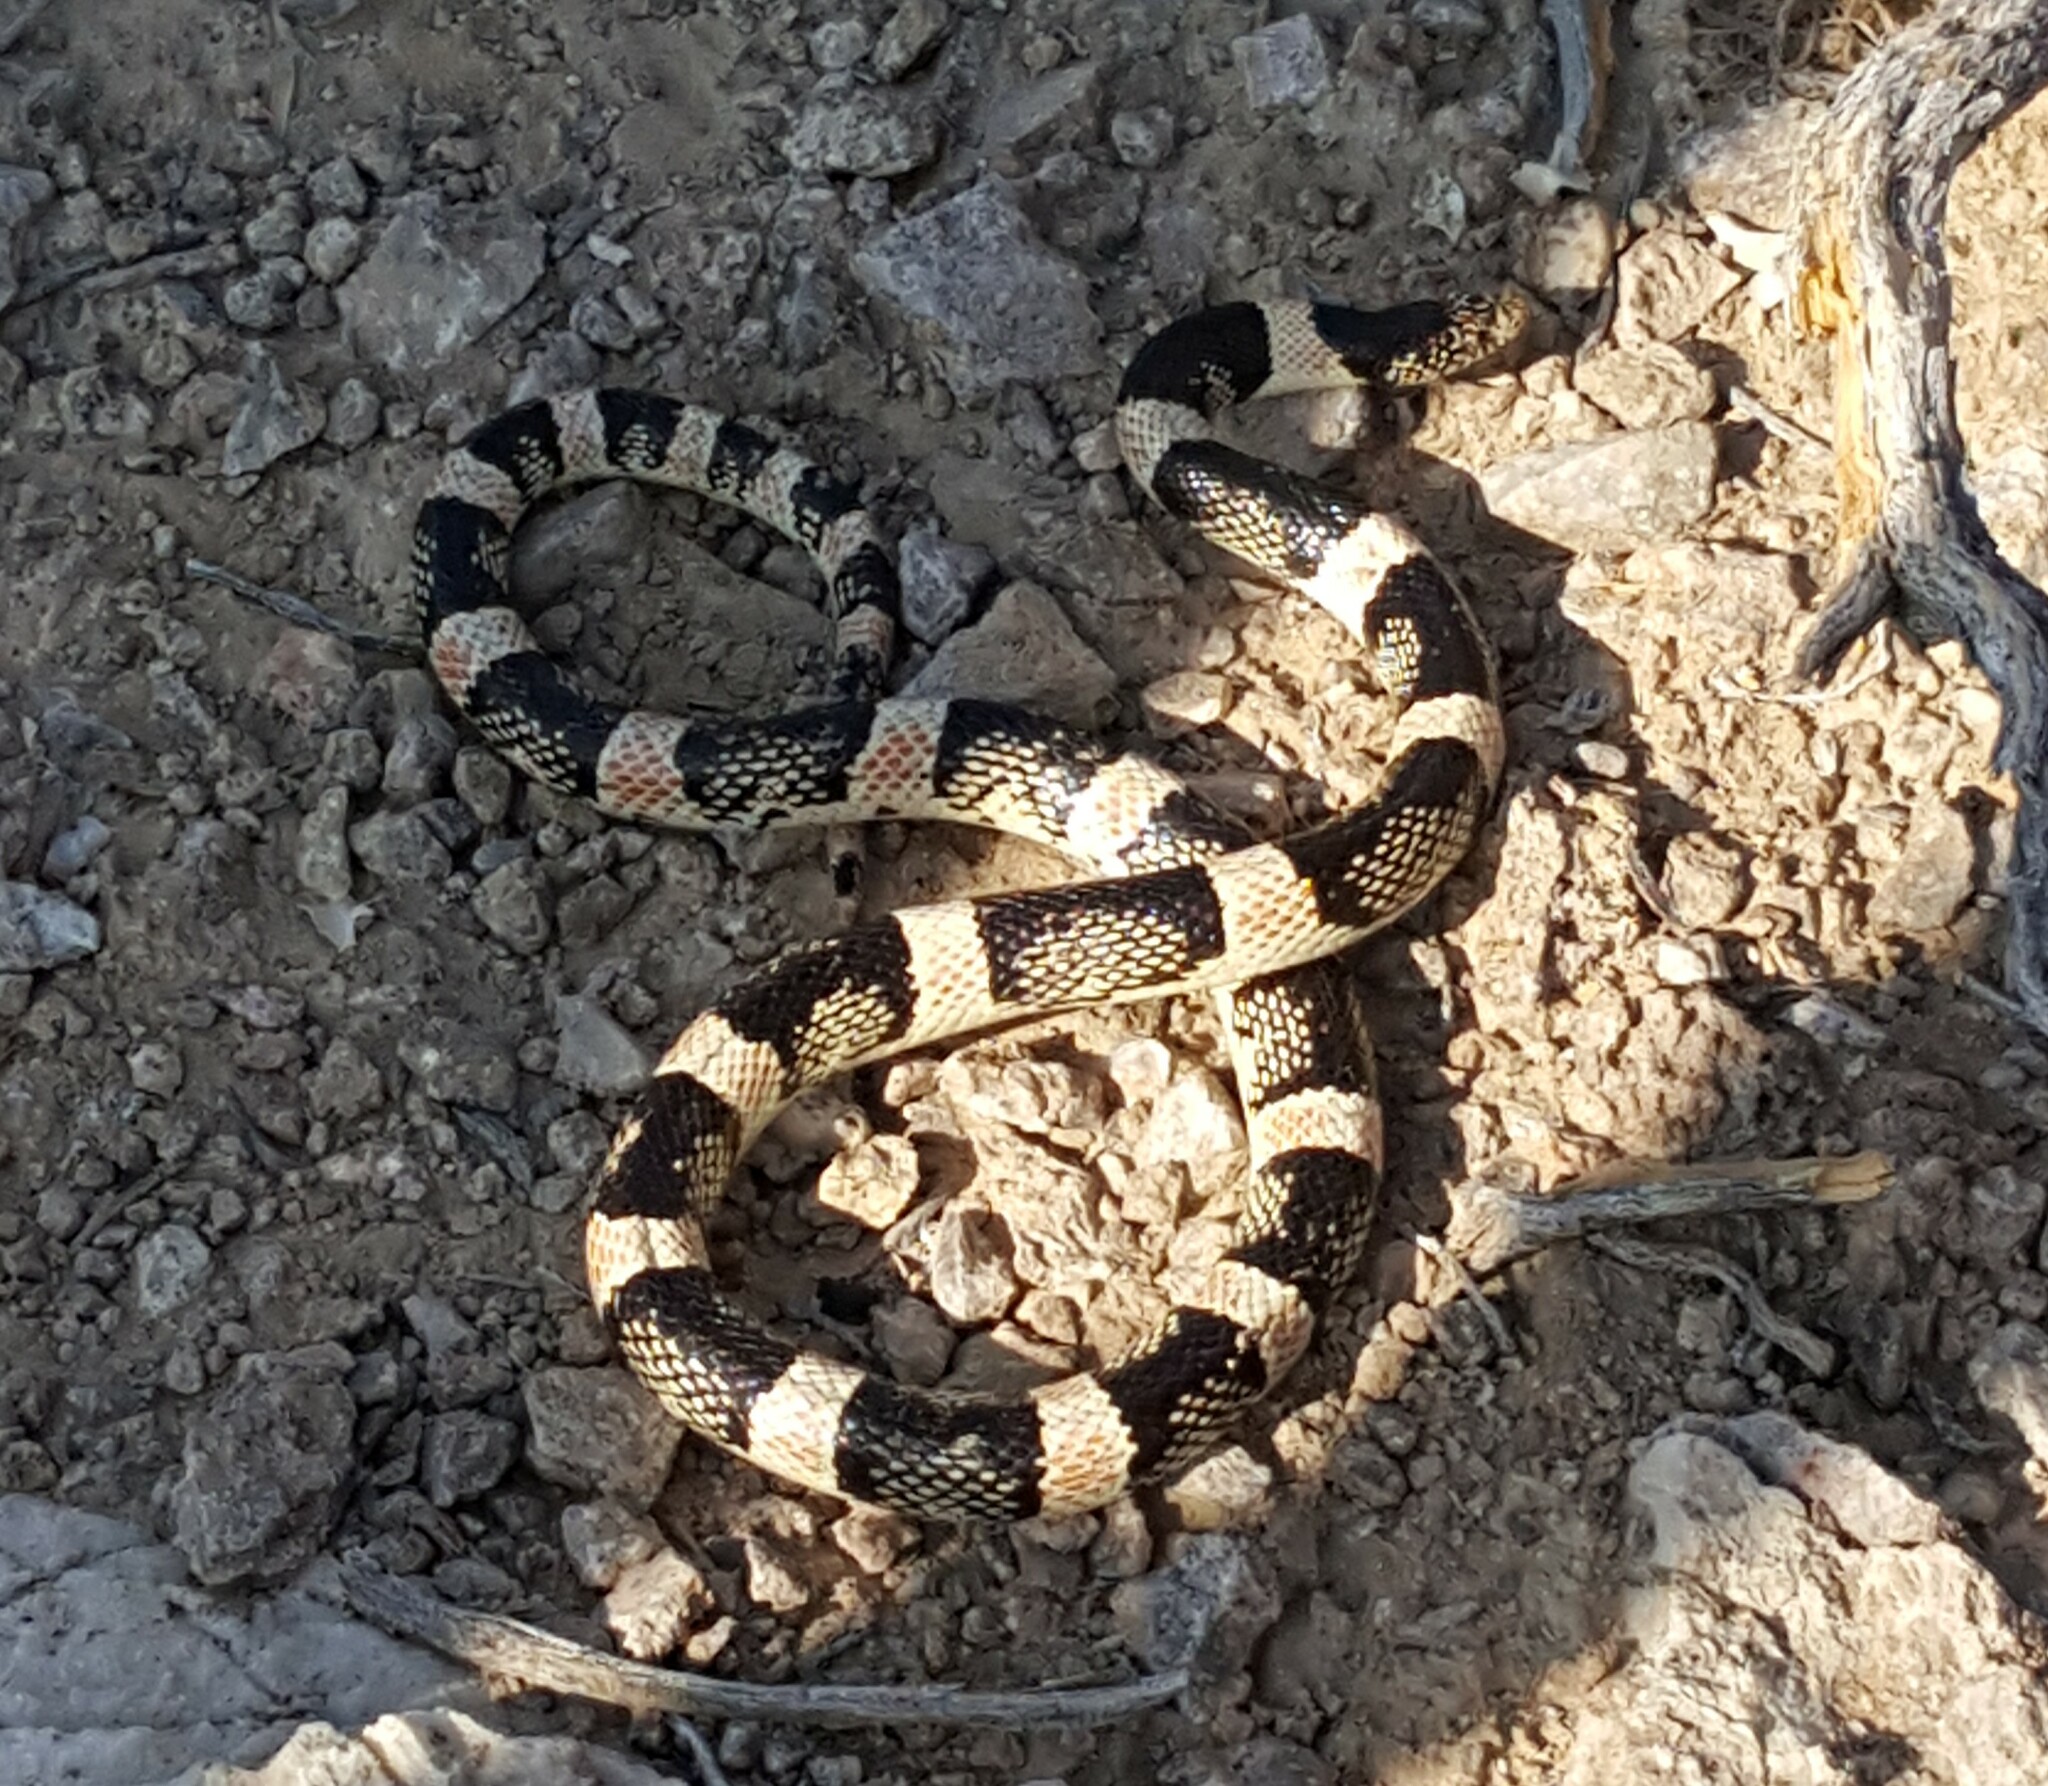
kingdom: Animalia
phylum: Chordata
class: Squamata
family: Colubridae
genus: Rhinocheilus
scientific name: Rhinocheilus lecontei
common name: Longnose snake
